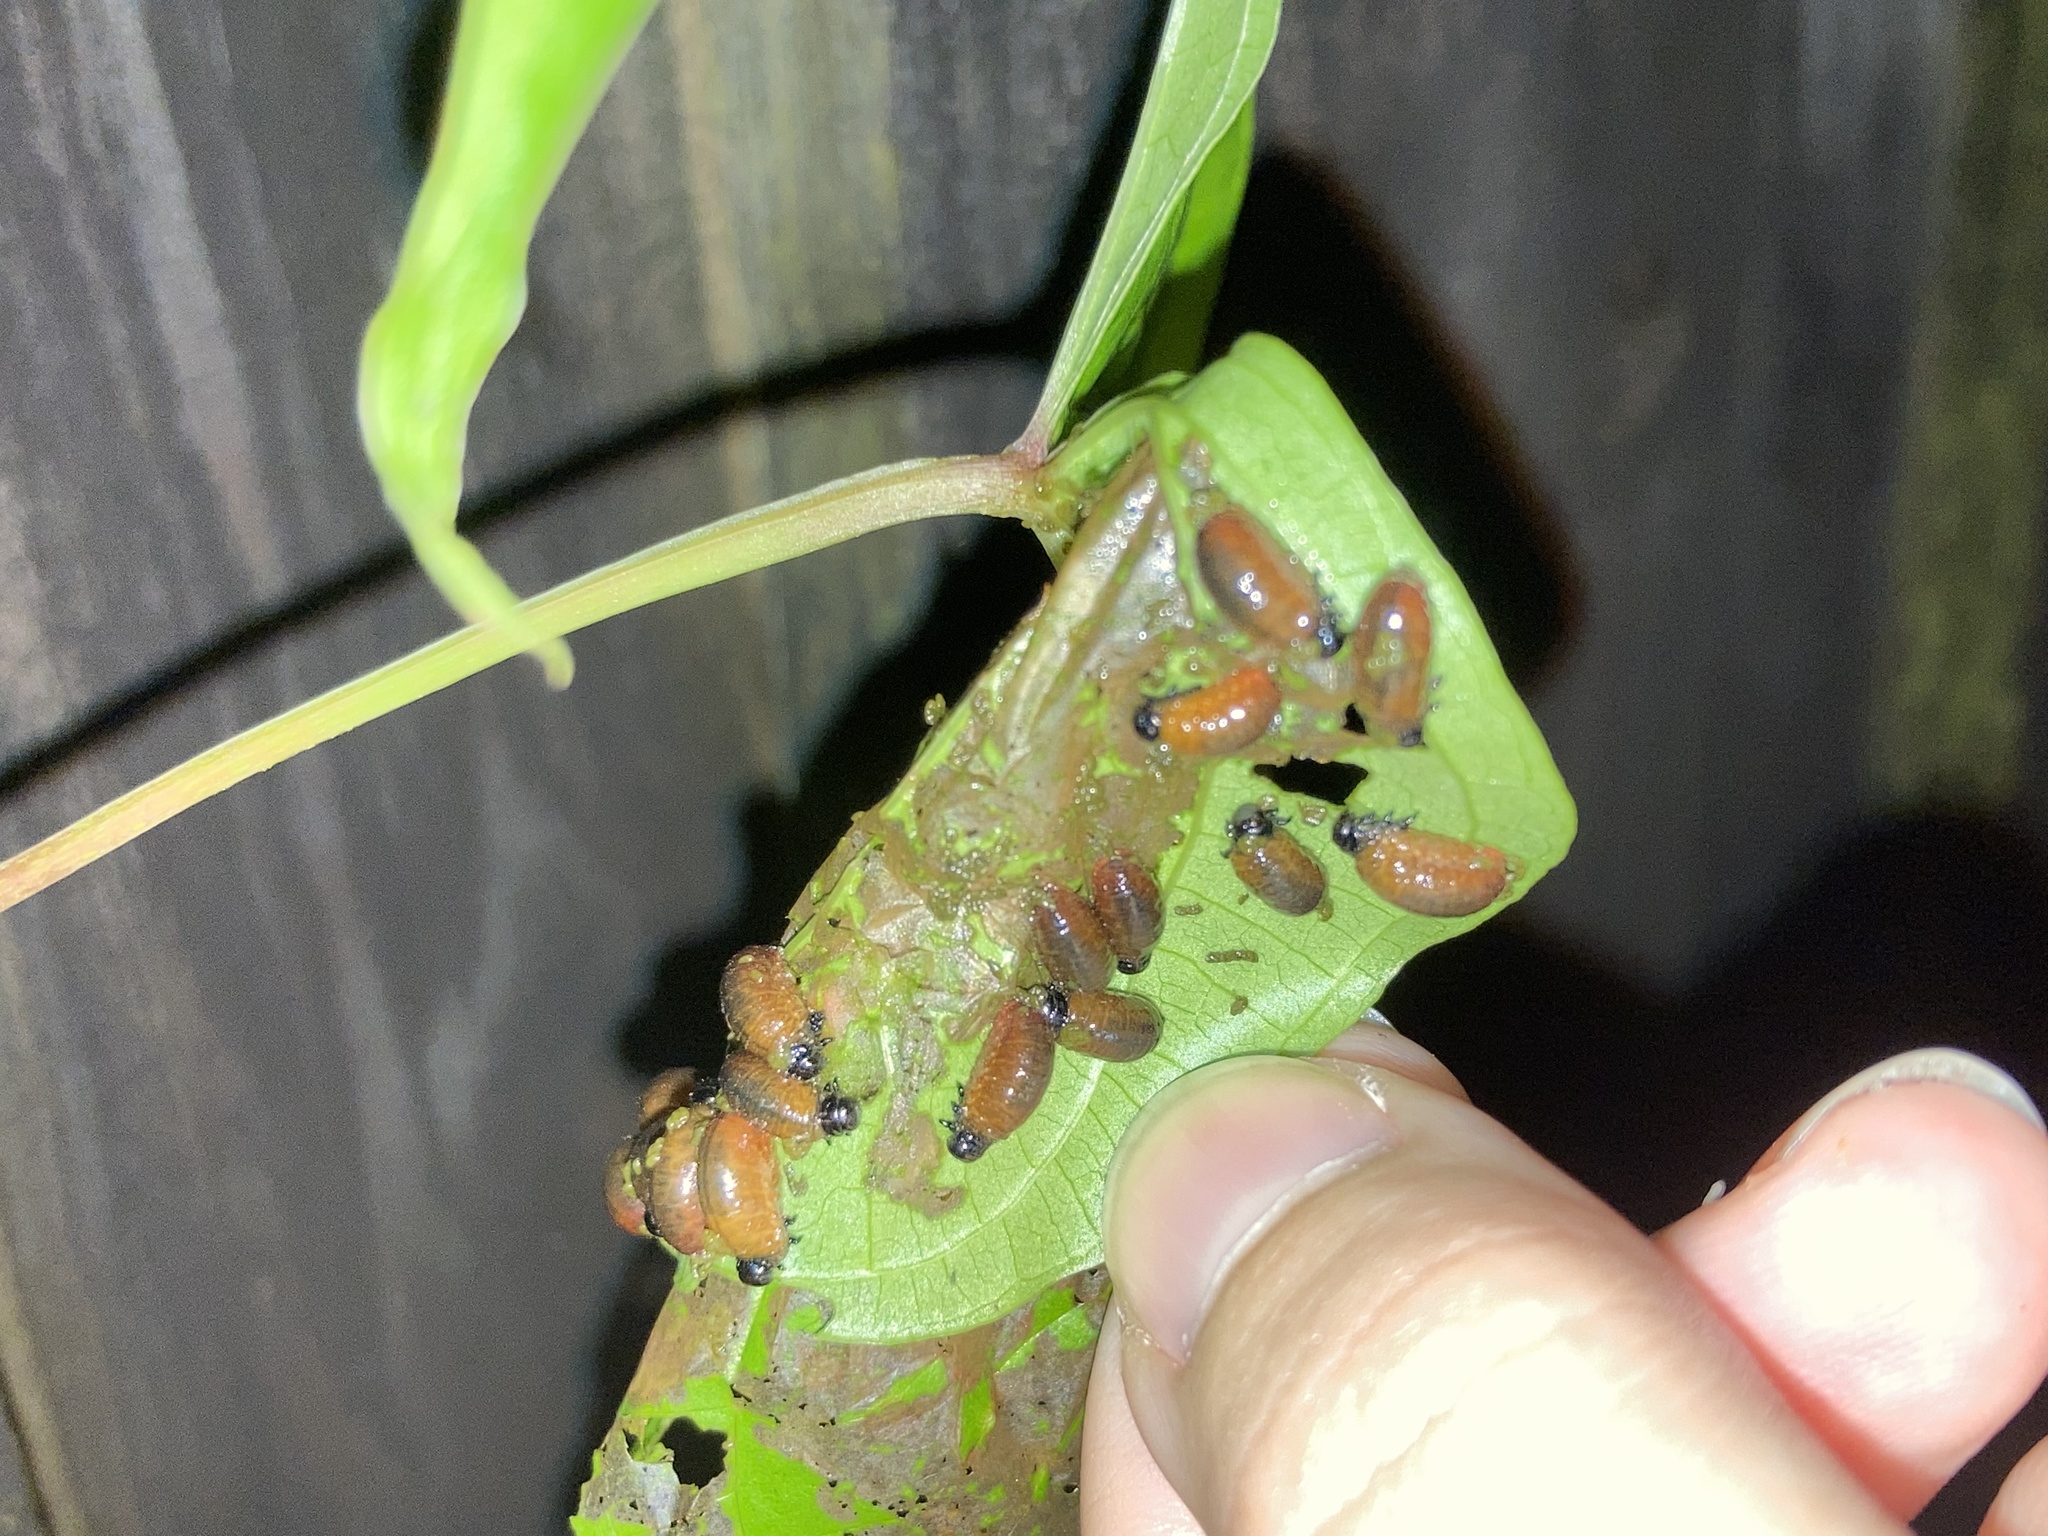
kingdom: Animalia
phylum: Arthropoda
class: Insecta
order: Coleoptera
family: Chrysomelidae
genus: Lilioceris
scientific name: Lilioceris cheni
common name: Leaf beetle
